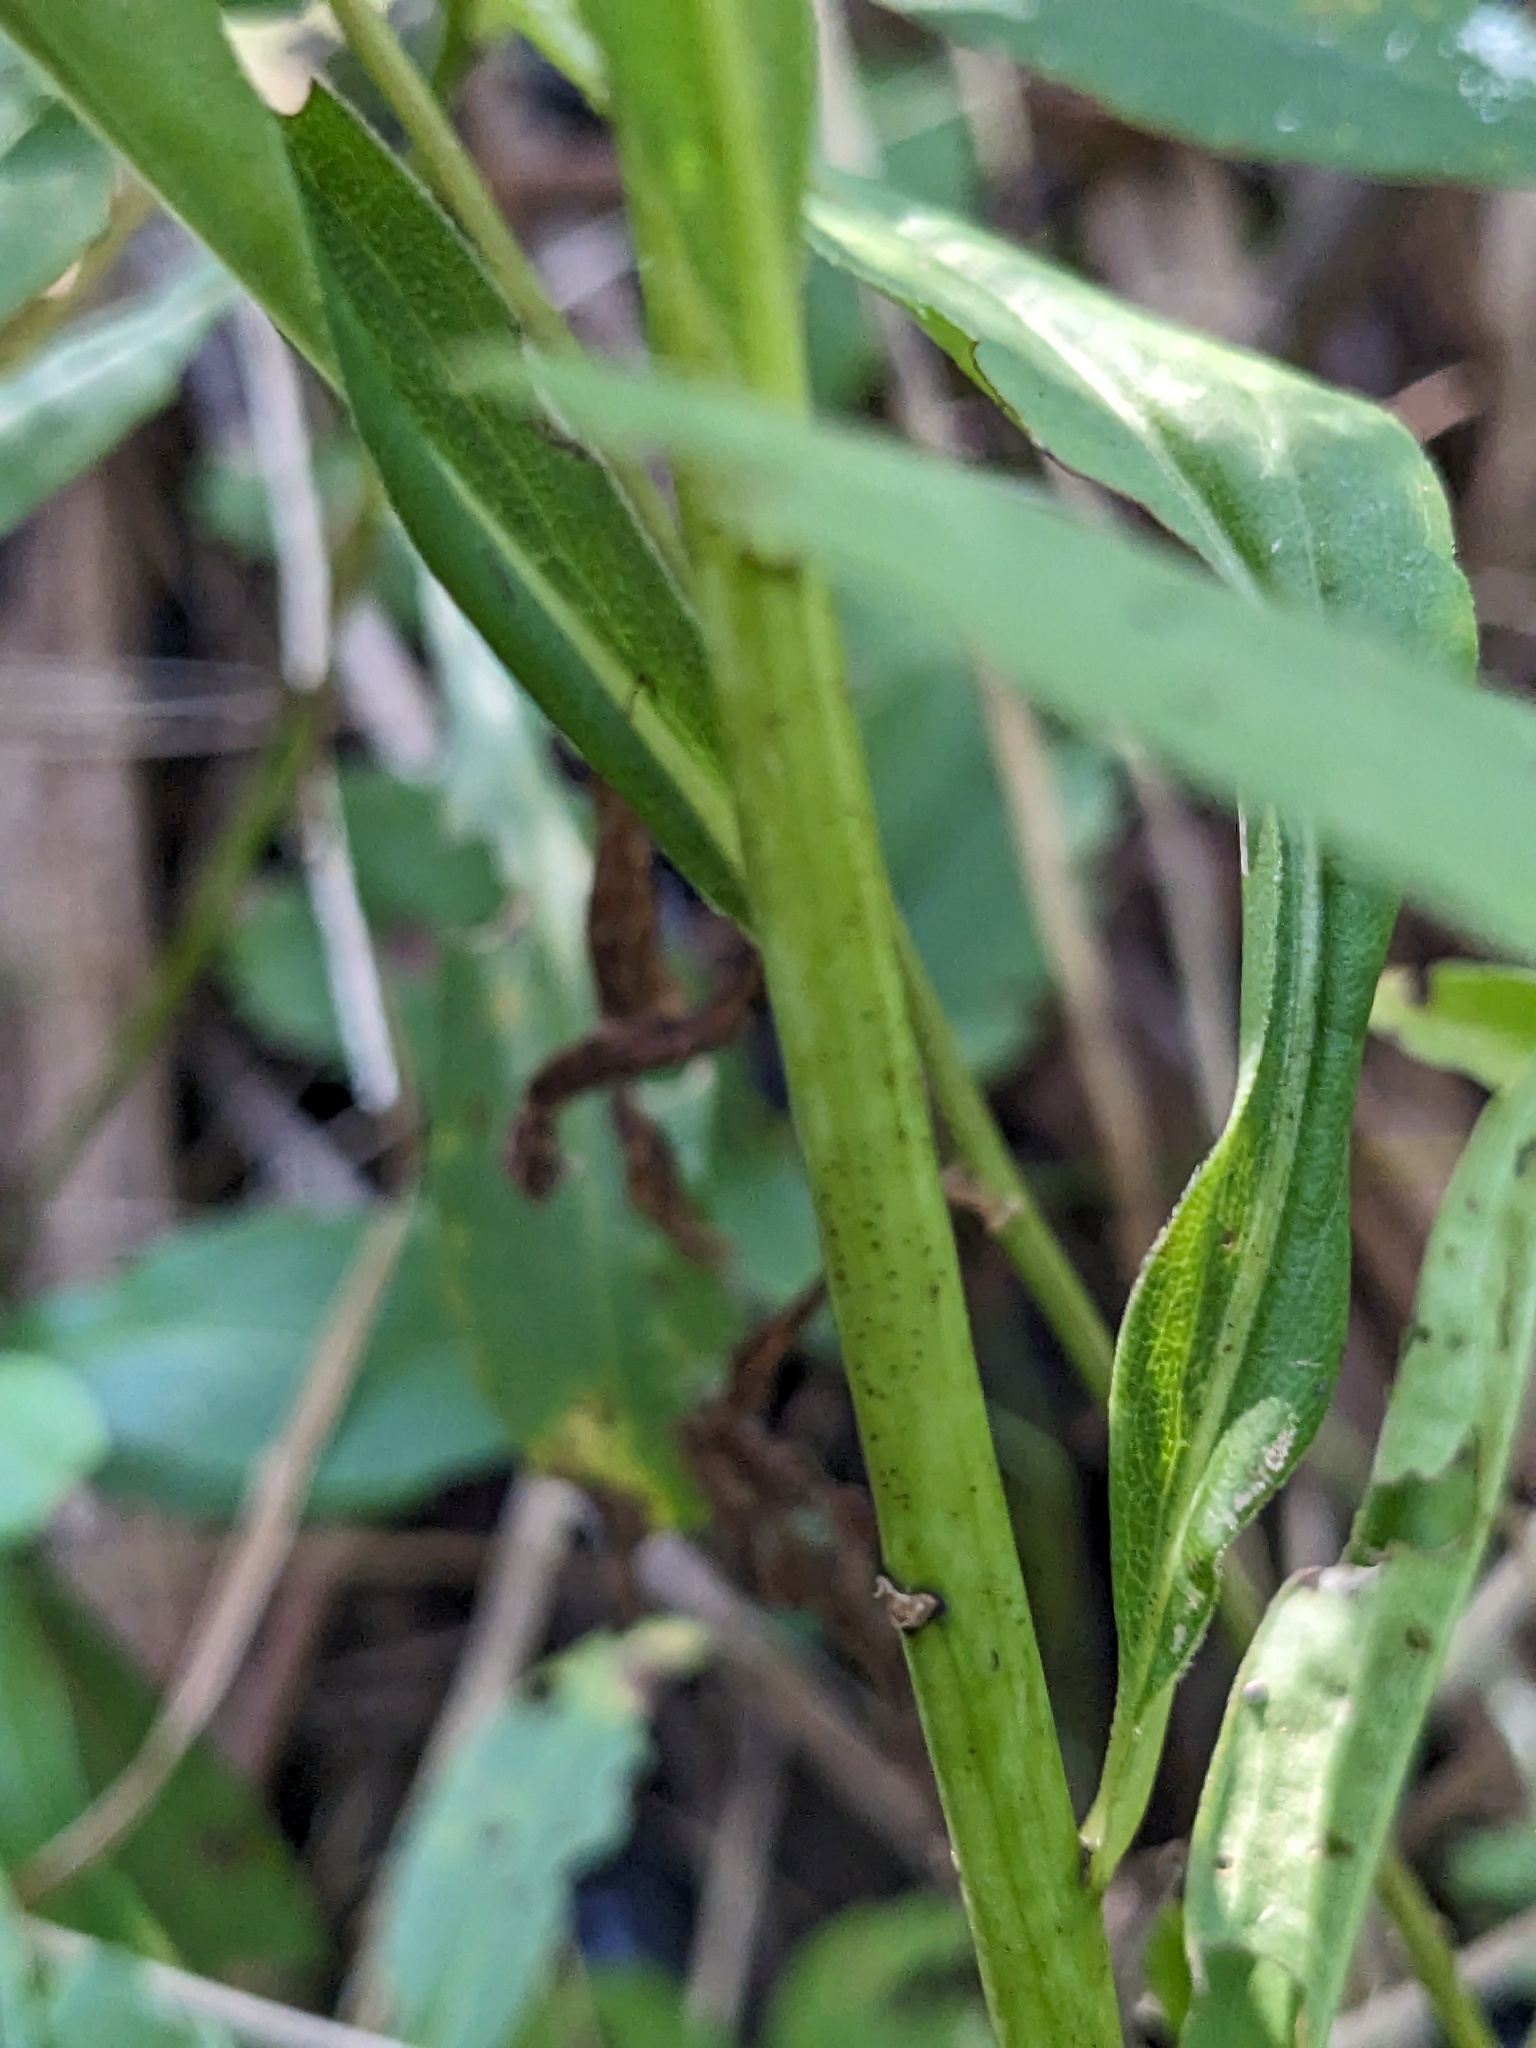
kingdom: Plantae
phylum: Tracheophyta
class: Magnoliopsida
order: Asterales
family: Asteraceae
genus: Solidago
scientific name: Solidago gigantea
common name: Giant goldenrod
